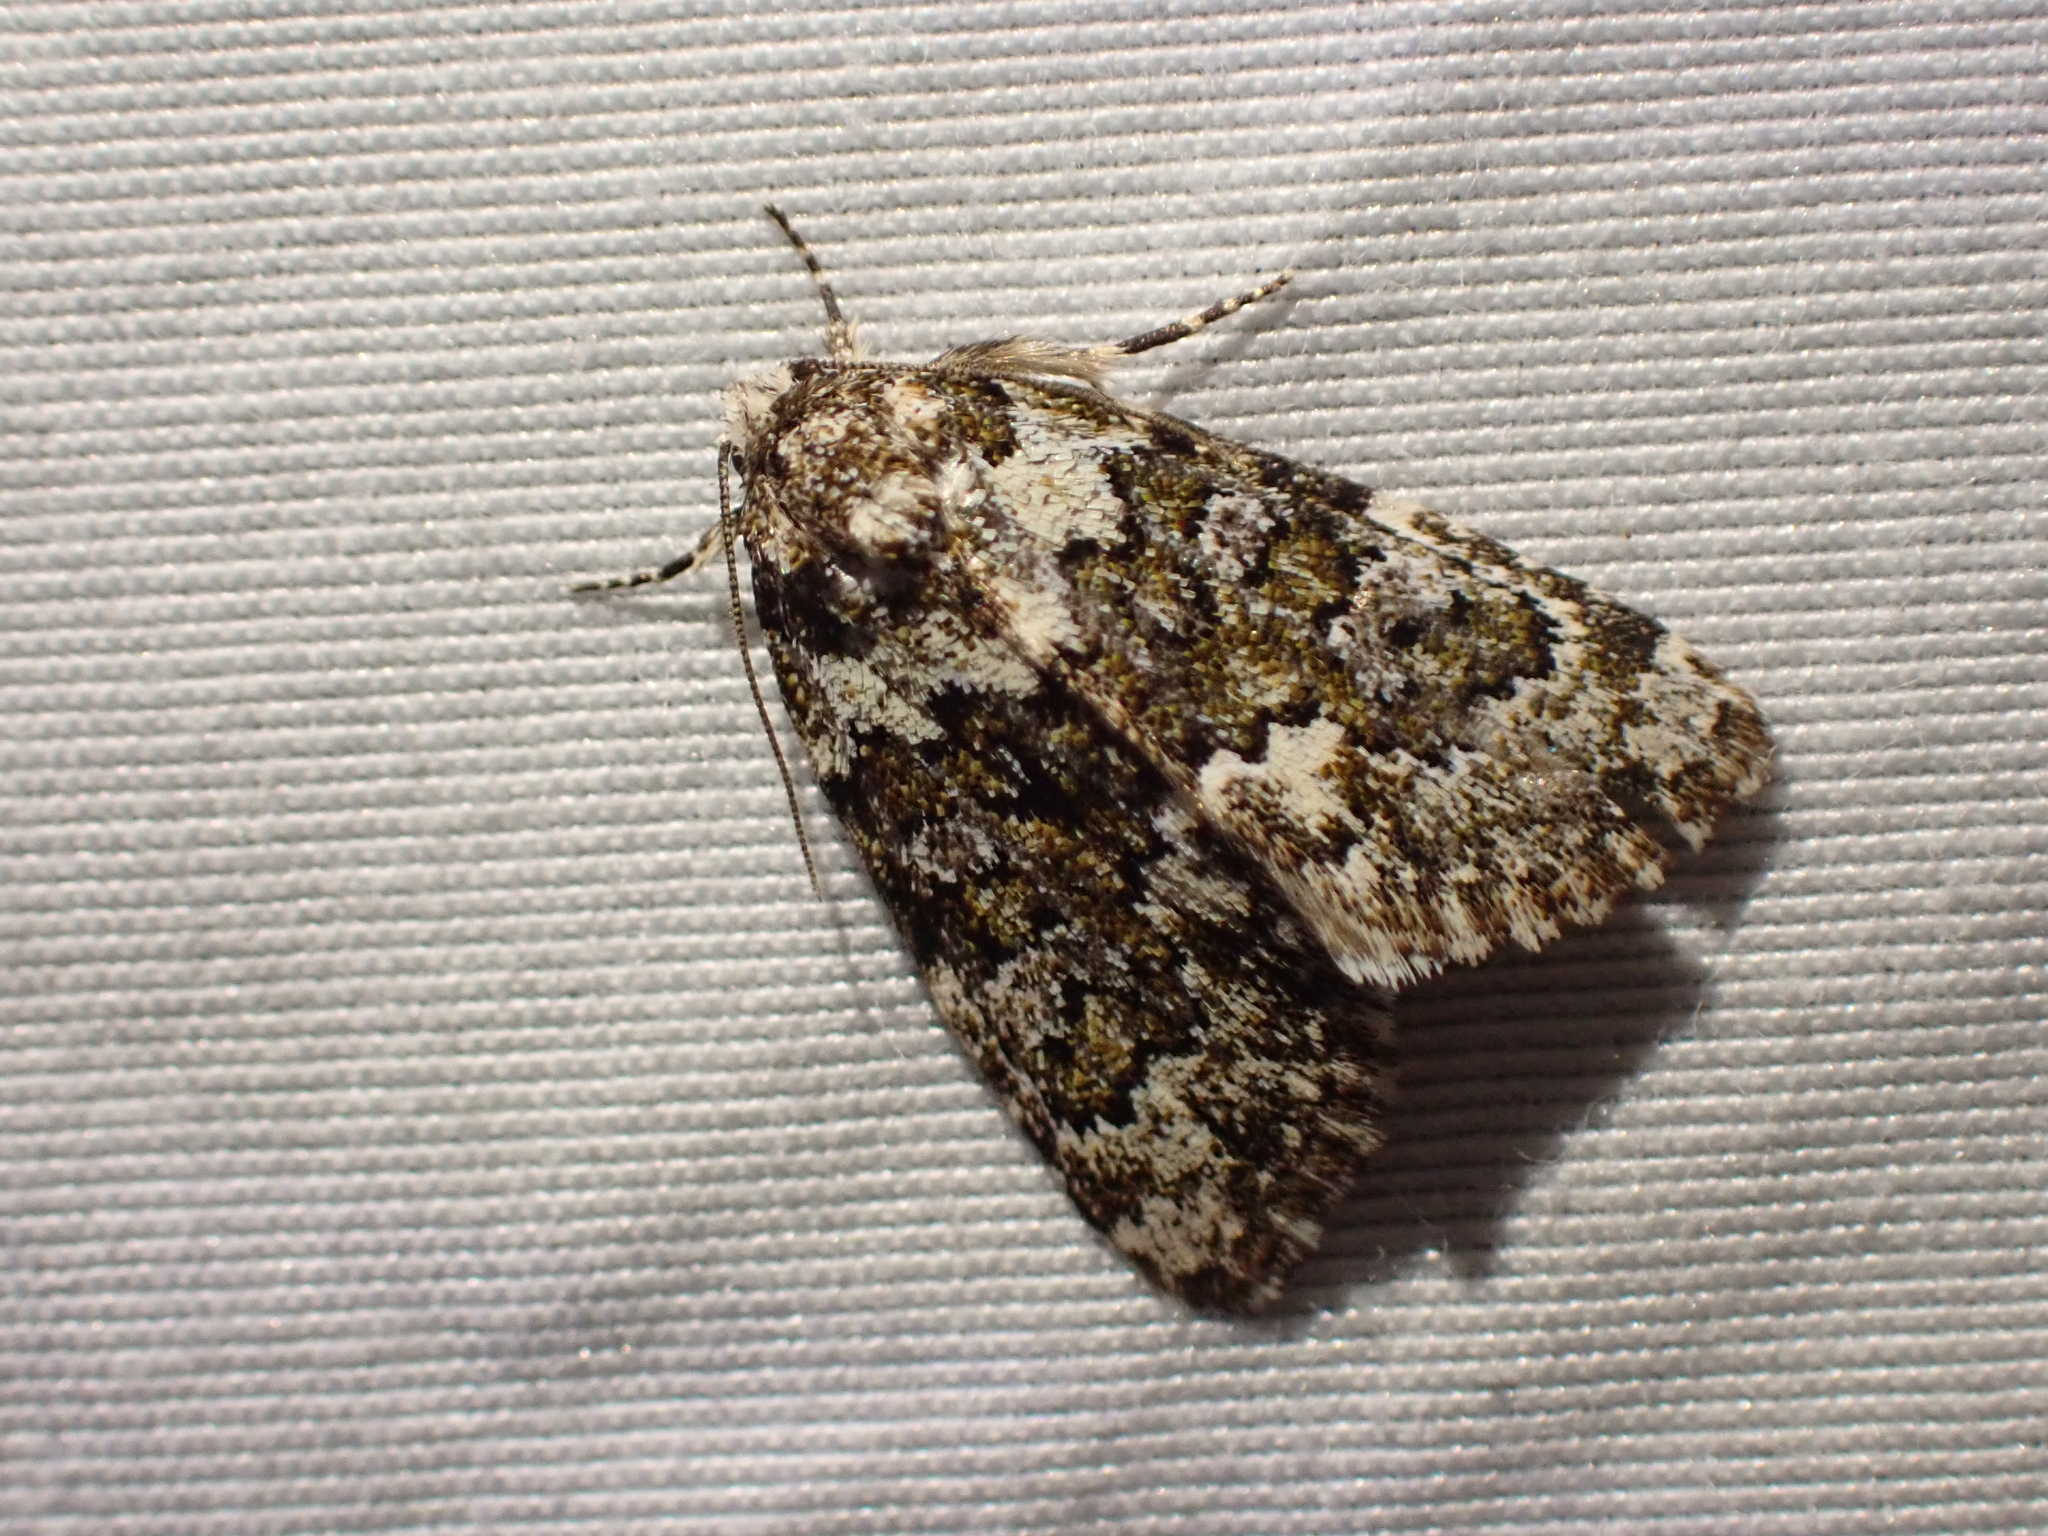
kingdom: Animalia
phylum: Arthropoda
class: Insecta
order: Lepidoptera
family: Noctuidae
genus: Cryphia
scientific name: Cryphia cuerva
